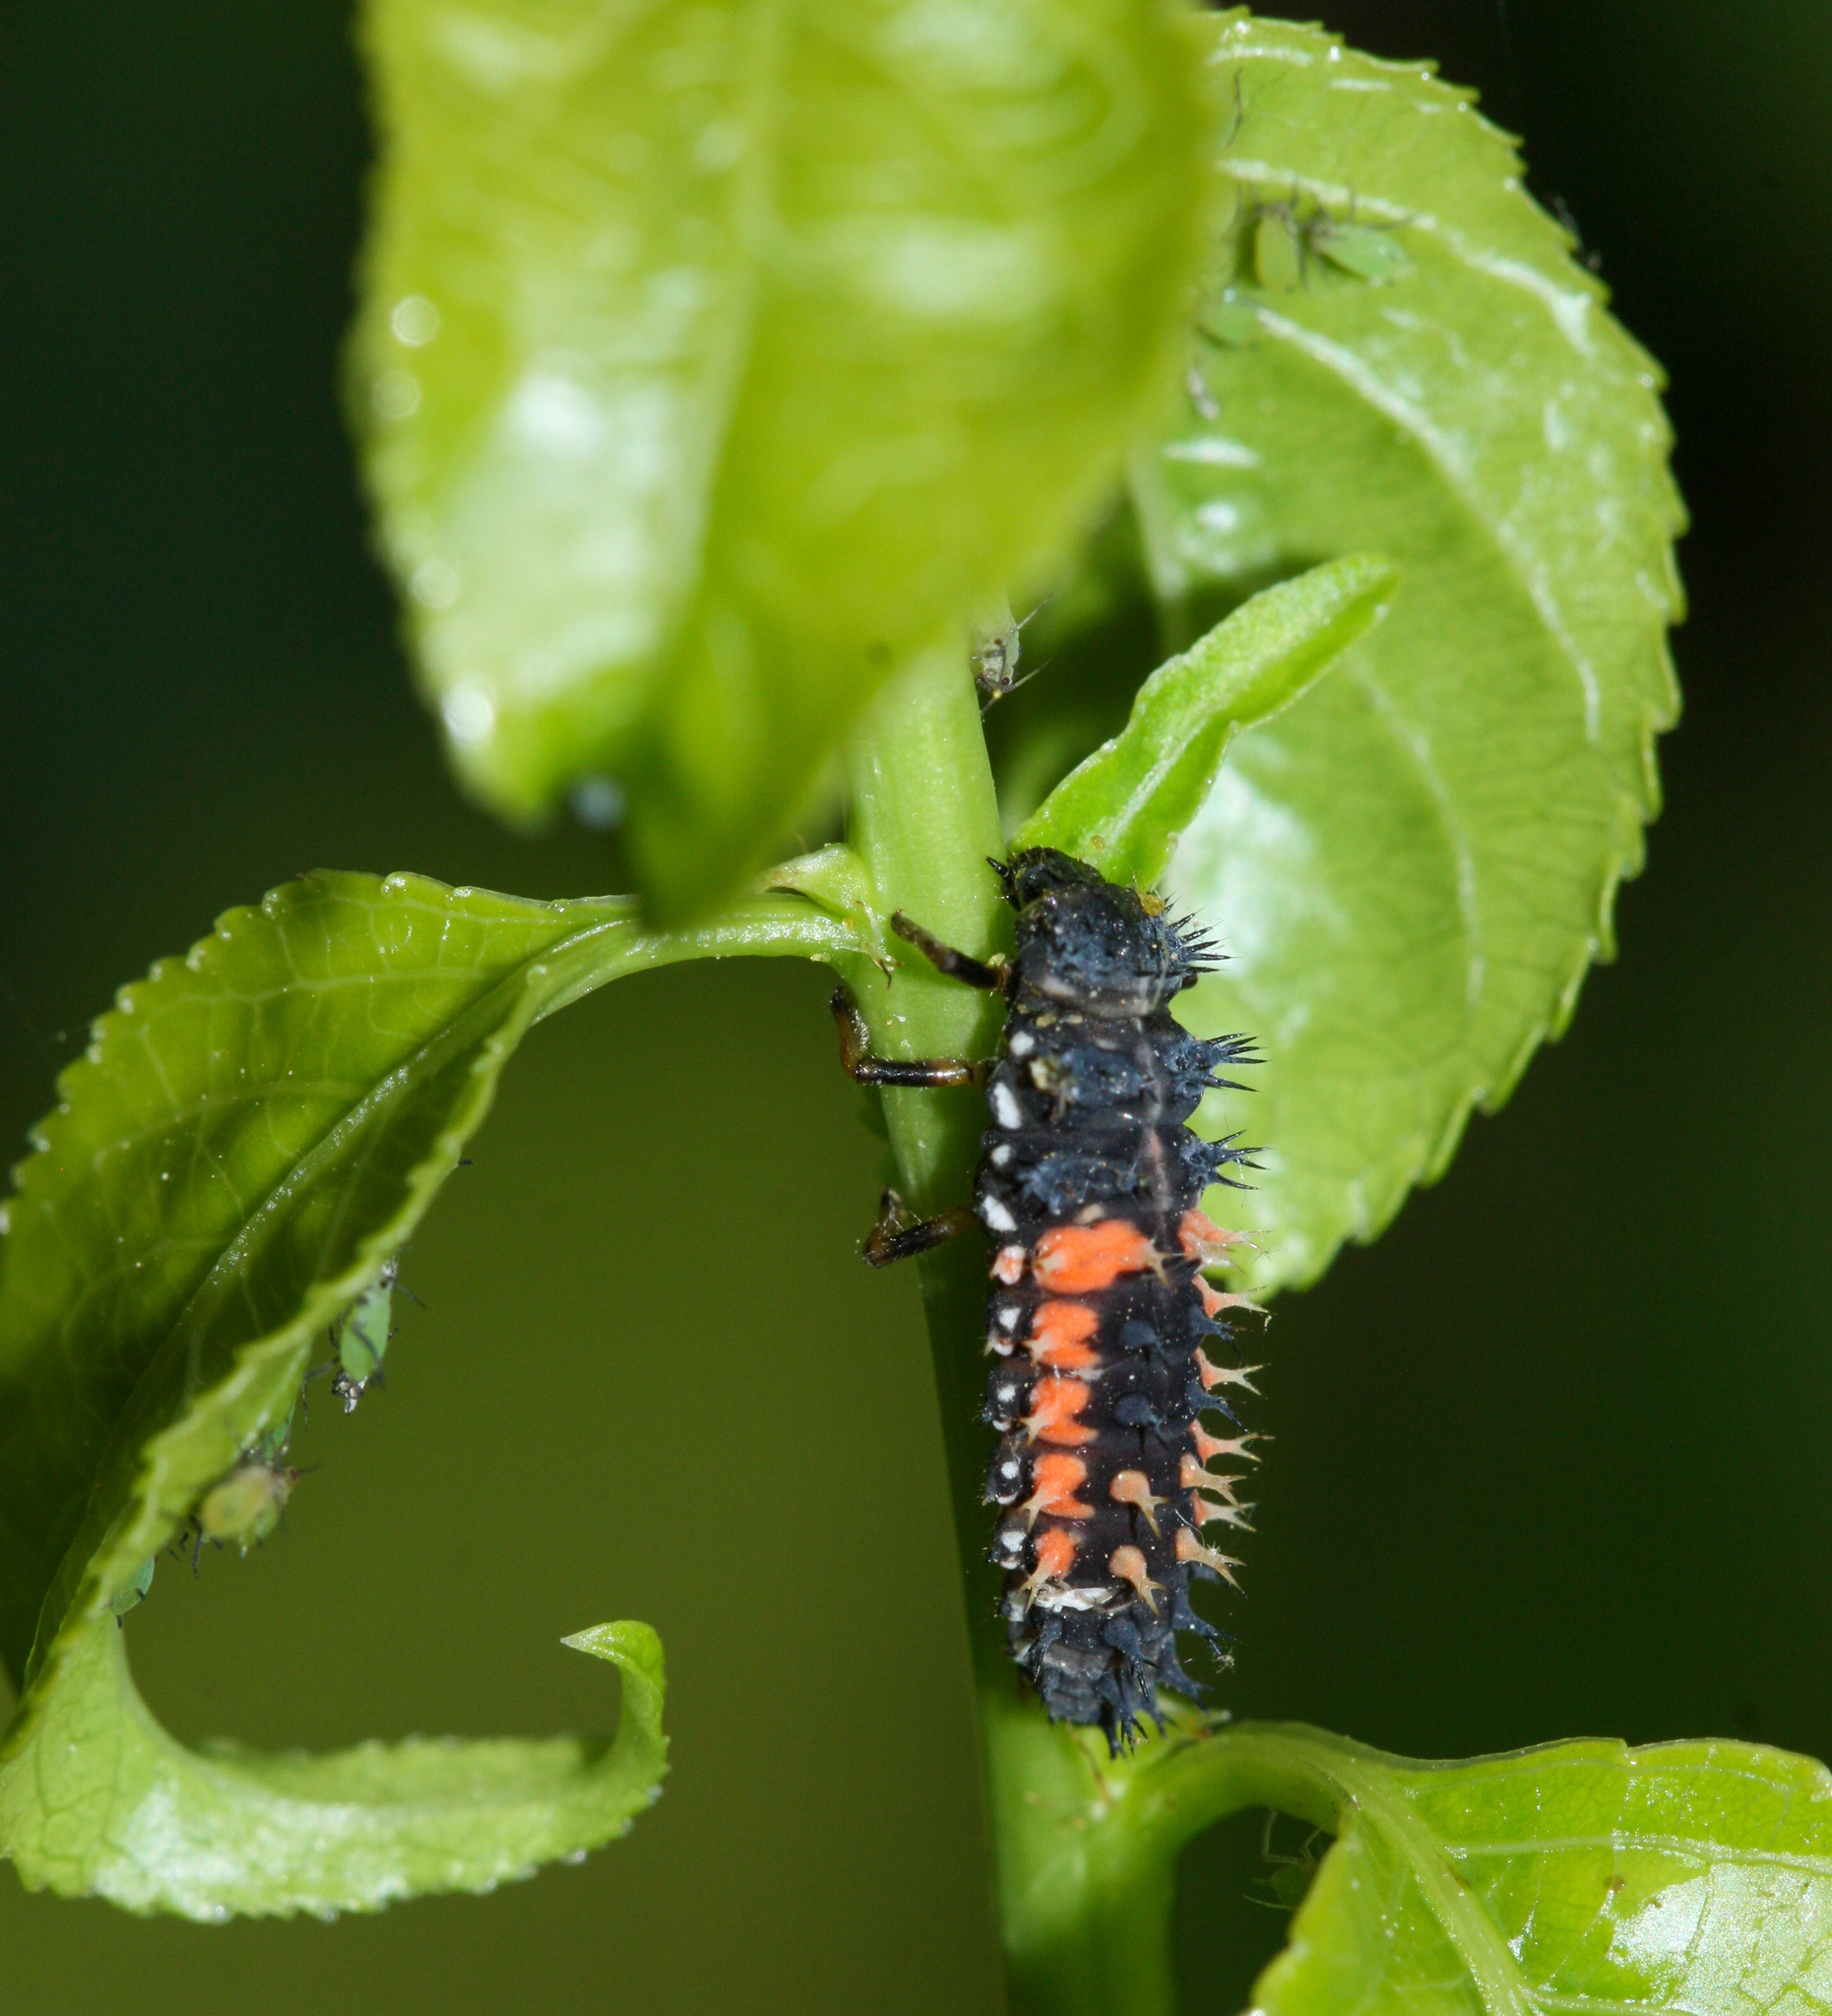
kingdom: Animalia
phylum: Arthropoda
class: Insecta
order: Coleoptera
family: Coccinellidae
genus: Harmonia
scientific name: Harmonia axyridis
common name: Harlequin ladybird
